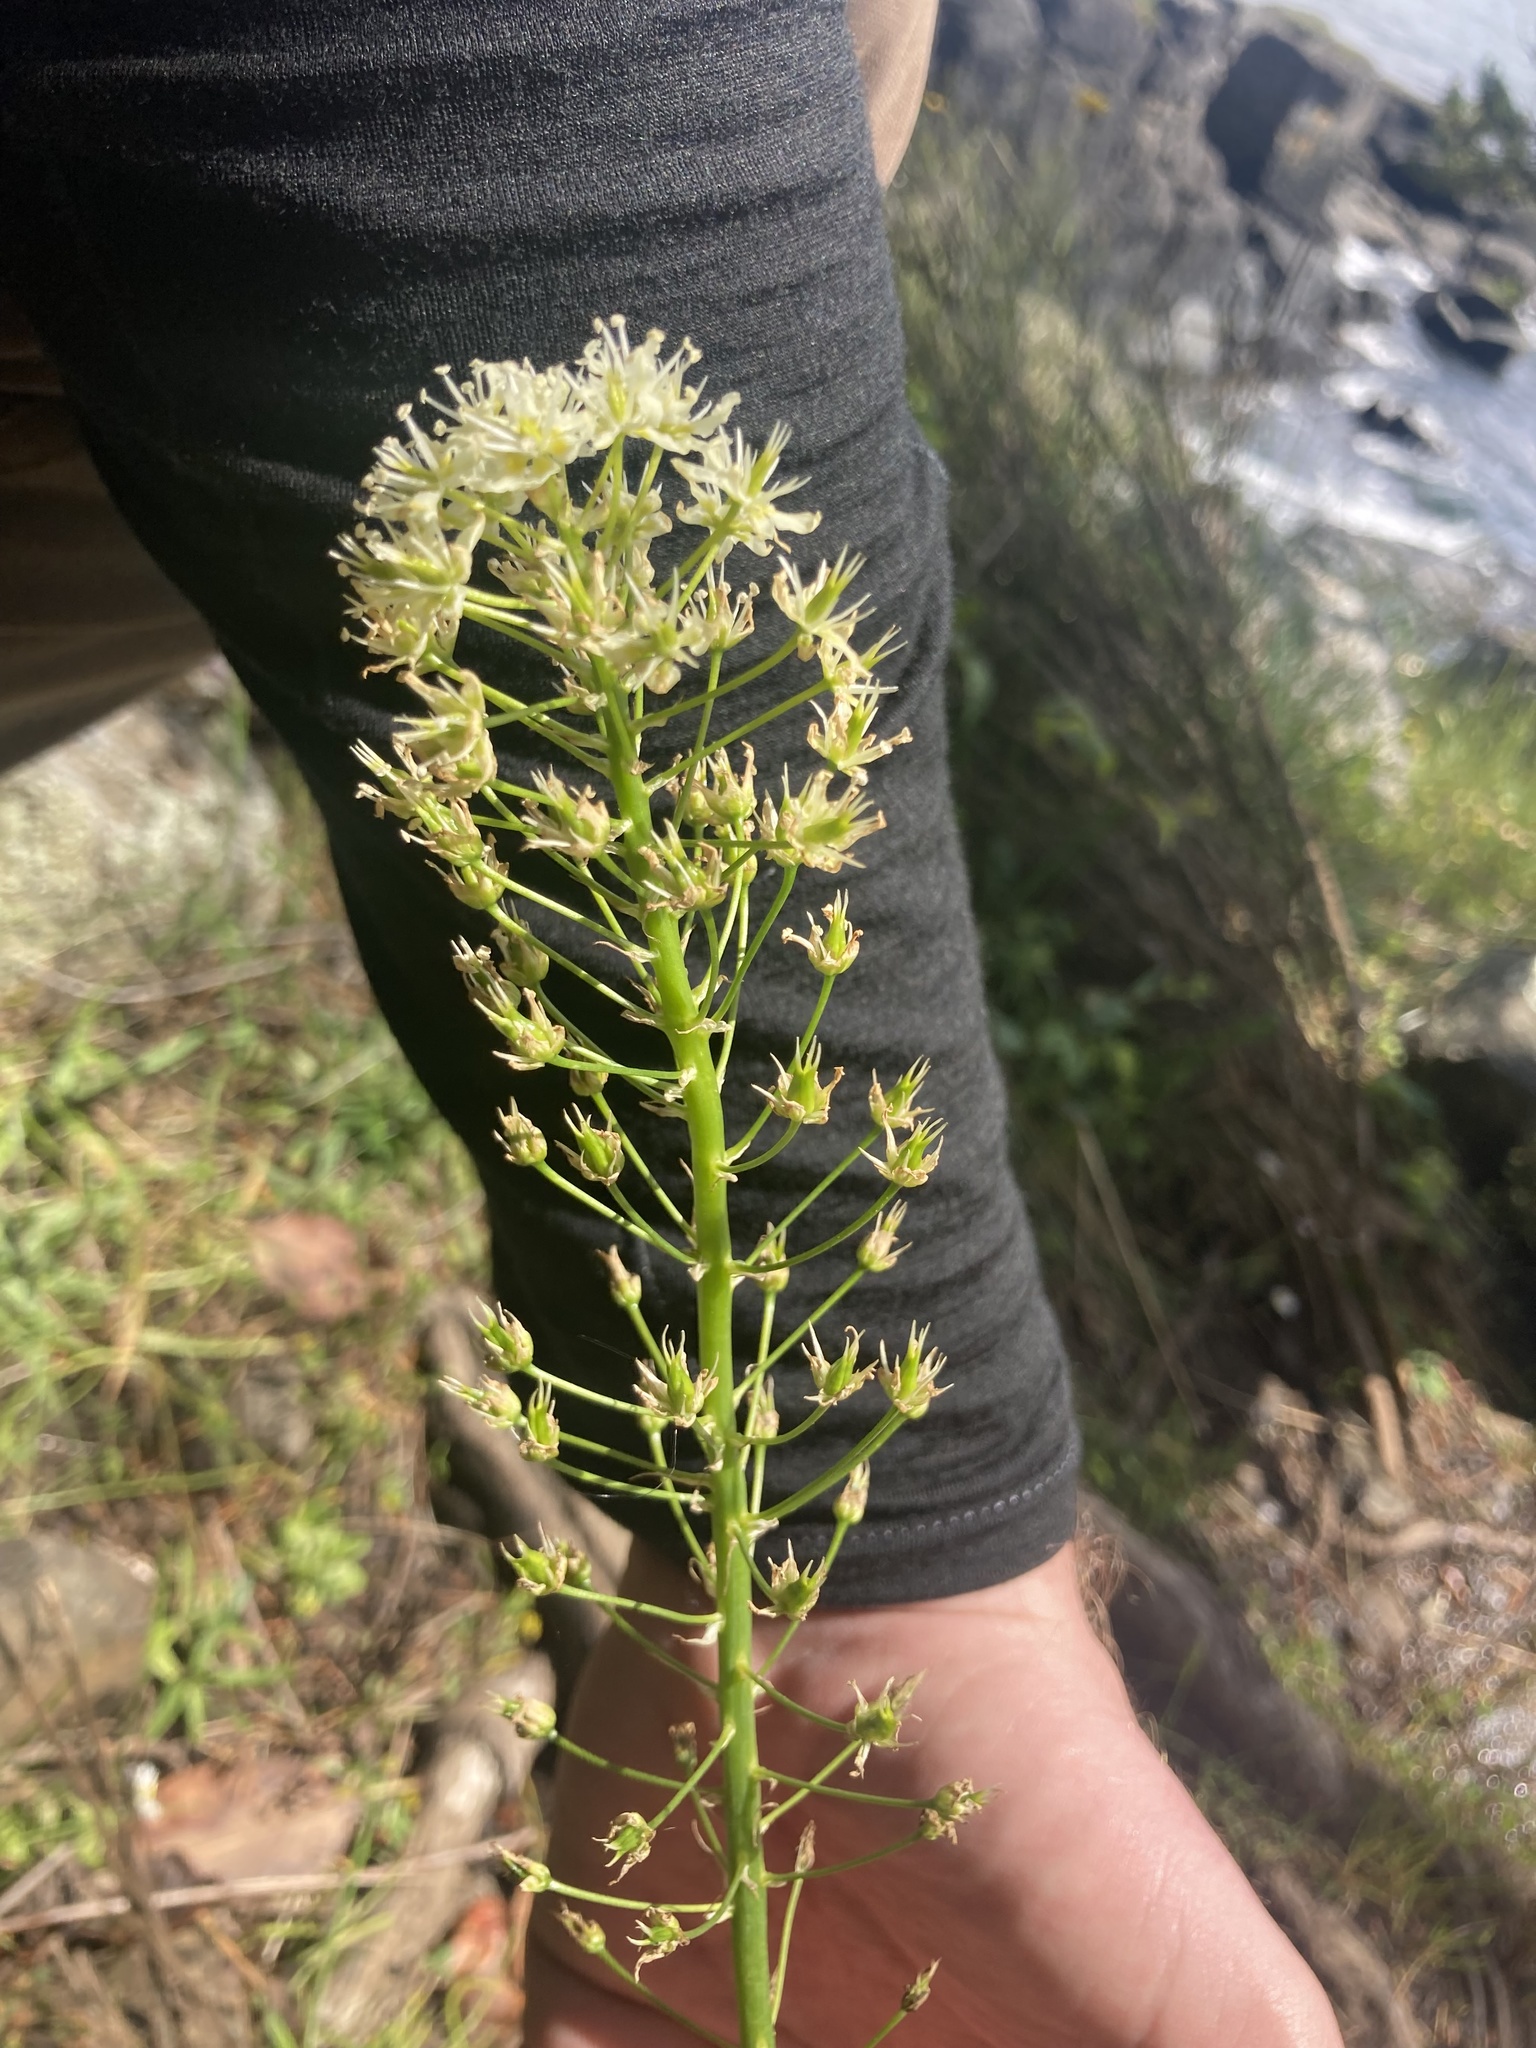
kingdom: Plantae
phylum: Tracheophyta
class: Liliopsida
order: Liliales
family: Melanthiaceae
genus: Toxicoscordion
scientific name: Toxicoscordion venenosum
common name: Meadow death camas
